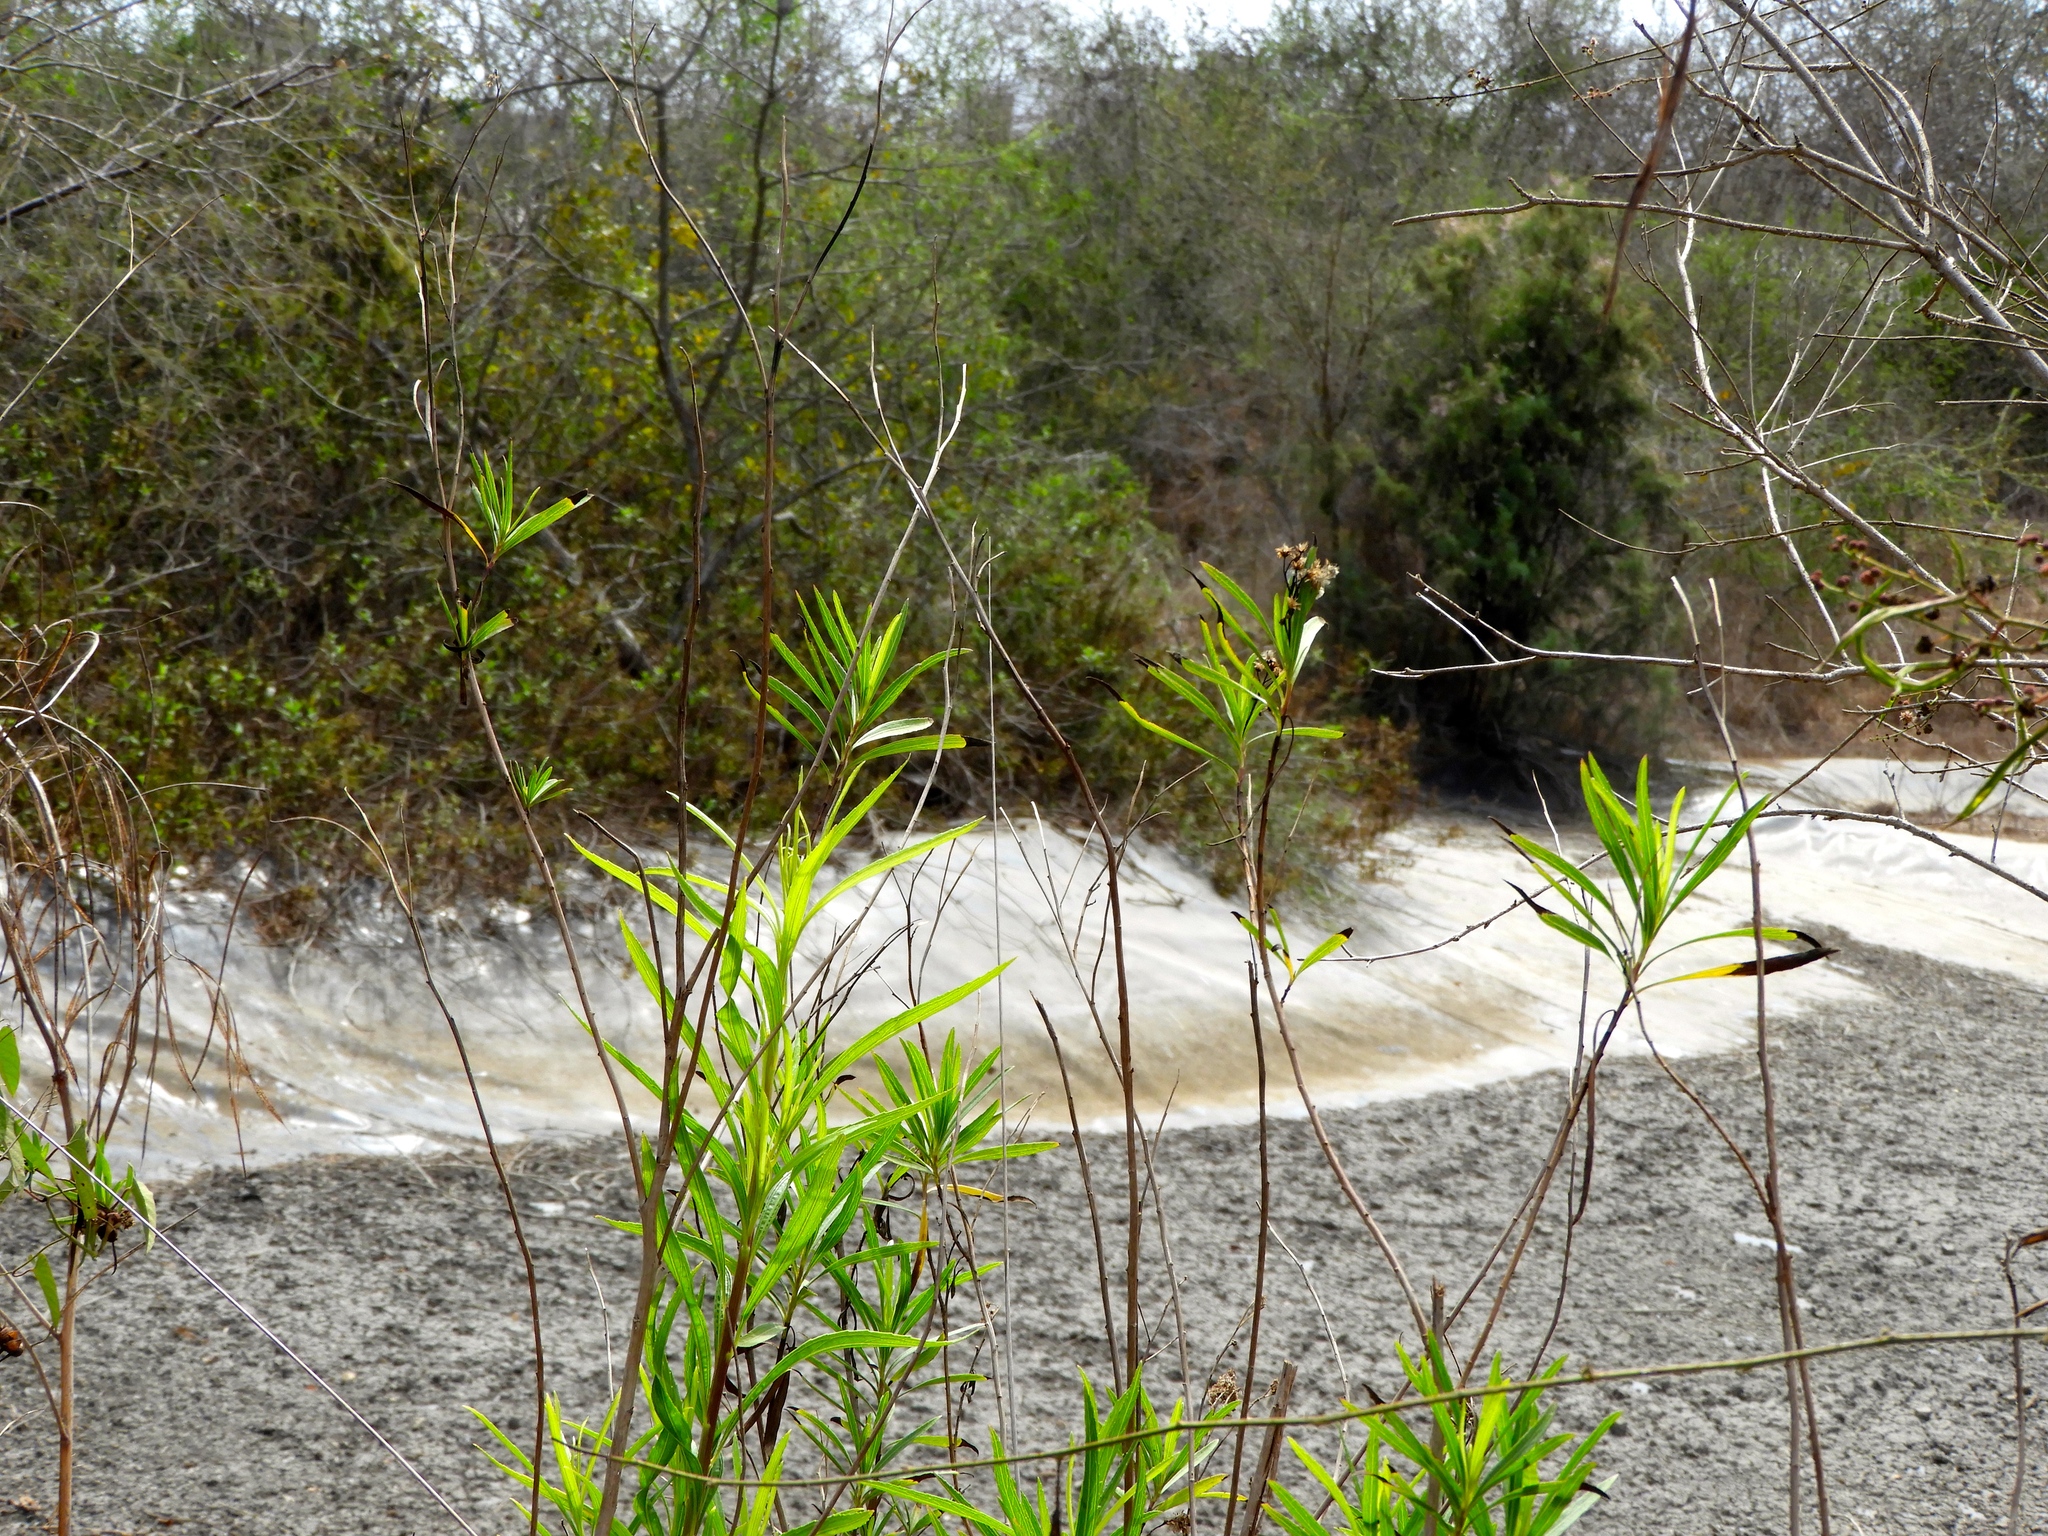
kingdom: Plantae
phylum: Tracheophyta
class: Magnoliopsida
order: Asterales
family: Asteraceae
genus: Baccharis
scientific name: Baccharis salicifolia
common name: Sticky baccharis
